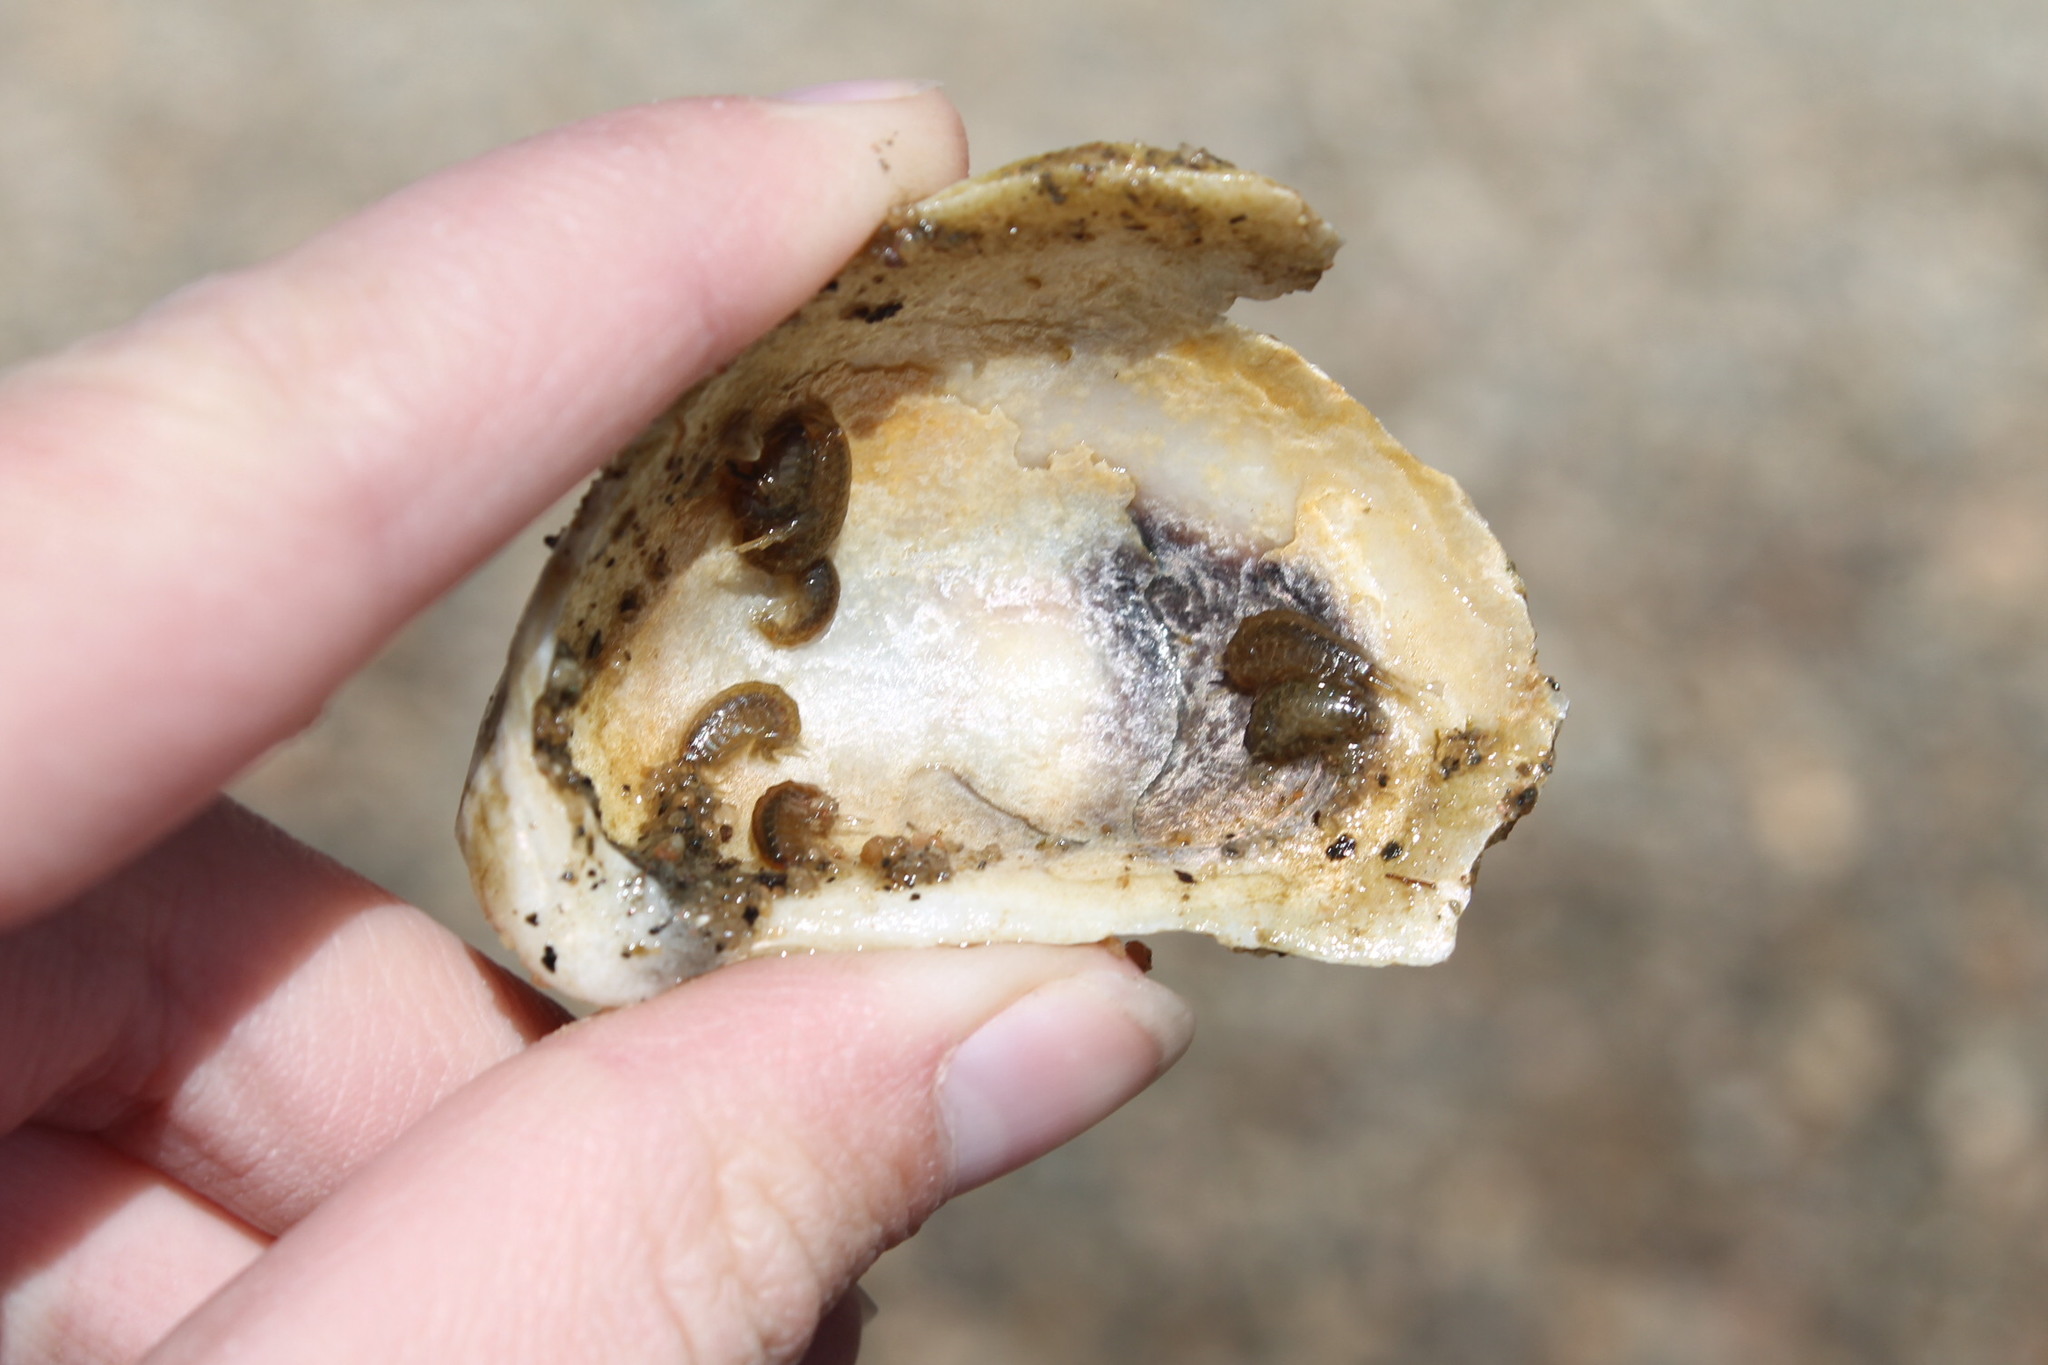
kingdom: Animalia
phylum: Mollusca
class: Bivalvia
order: Ostreida
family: Ostreidae
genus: Crassostrea
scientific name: Crassostrea virginica
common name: American oyster
